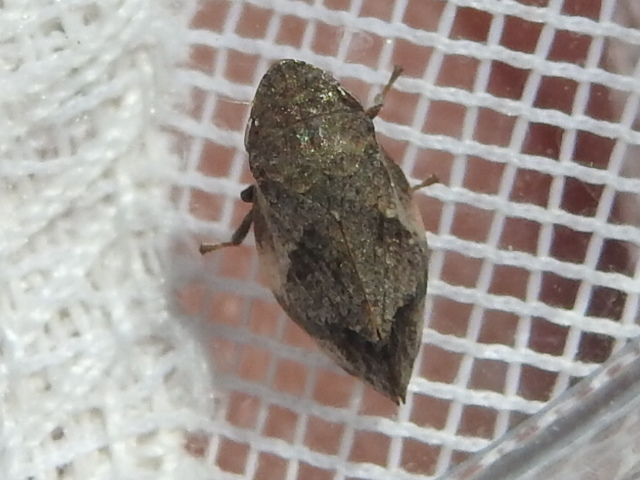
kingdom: Animalia
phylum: Arthropoda
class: Insecta
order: Hemiptera
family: Aphrophoridae
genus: Lepyronia
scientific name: Lepyronia quadrangularis
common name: Diamond-backed spittlebug
